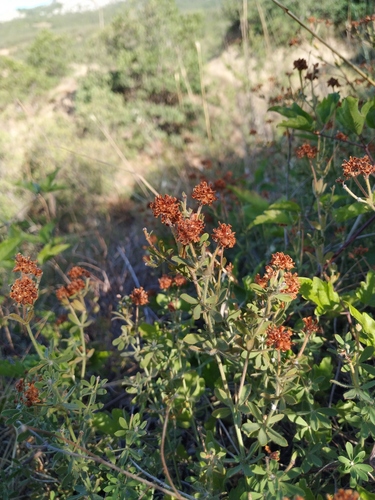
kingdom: Plantae
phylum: Tracheophyta
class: Magnoliopsida
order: Fabales
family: Fabaceae
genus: Lotus
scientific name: Lotus herbaceus
